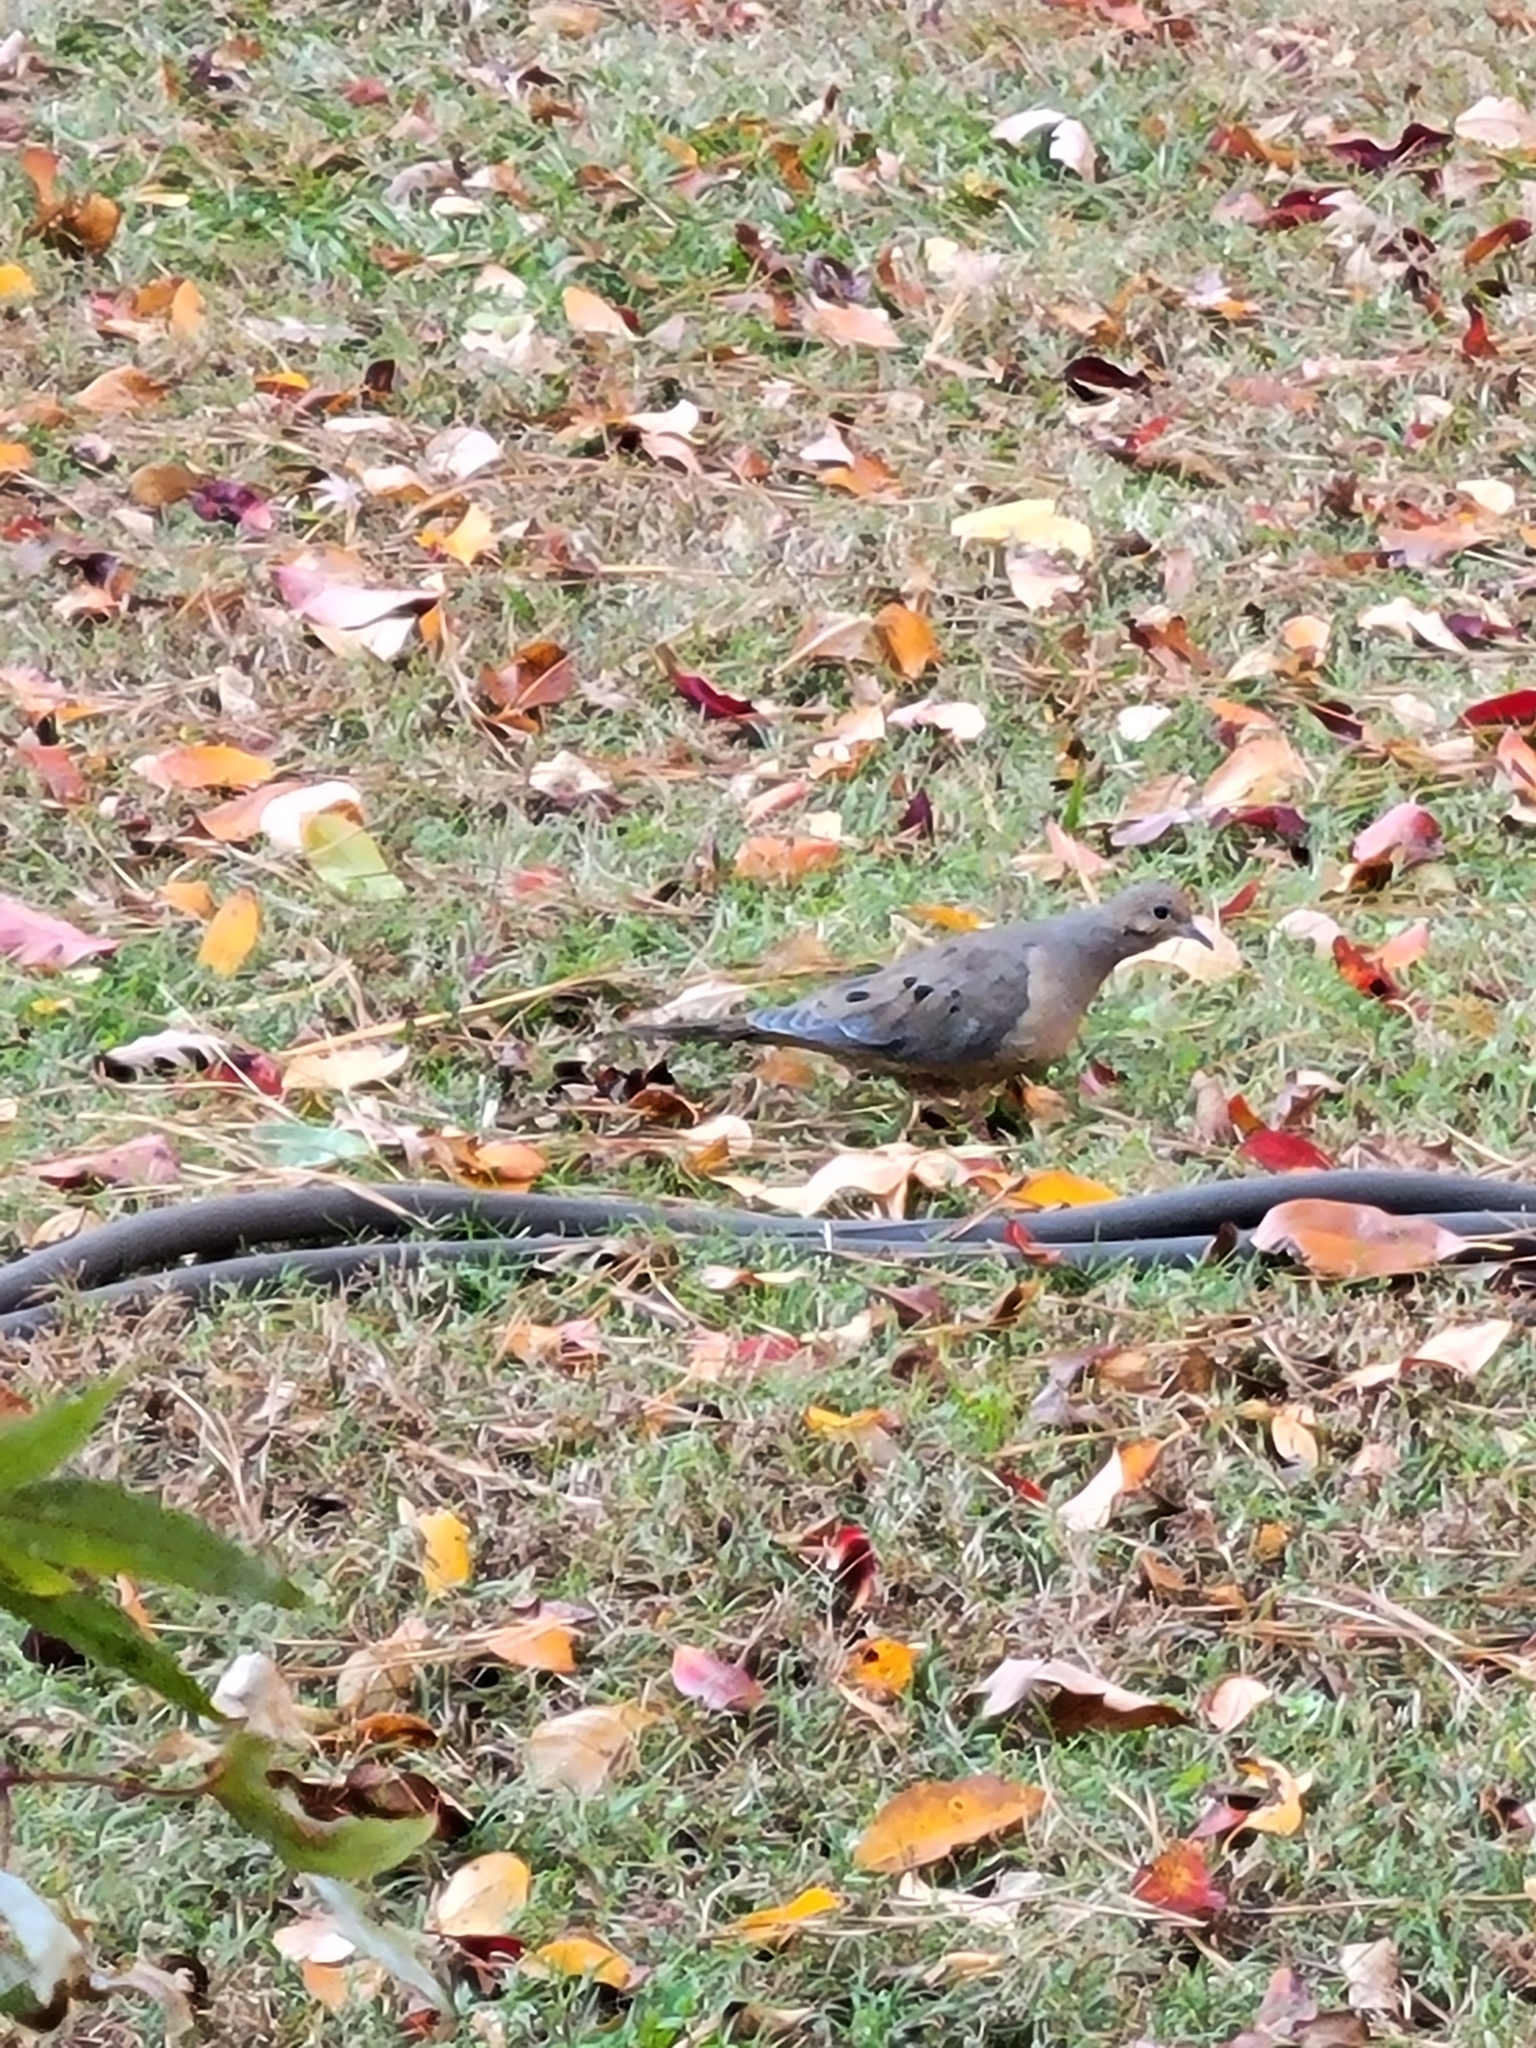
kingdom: Animalia
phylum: Chordata
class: Aves
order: Columbiformes
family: Columbidae
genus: Zenaida
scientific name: Zenaida macroura
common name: Mourning dove
